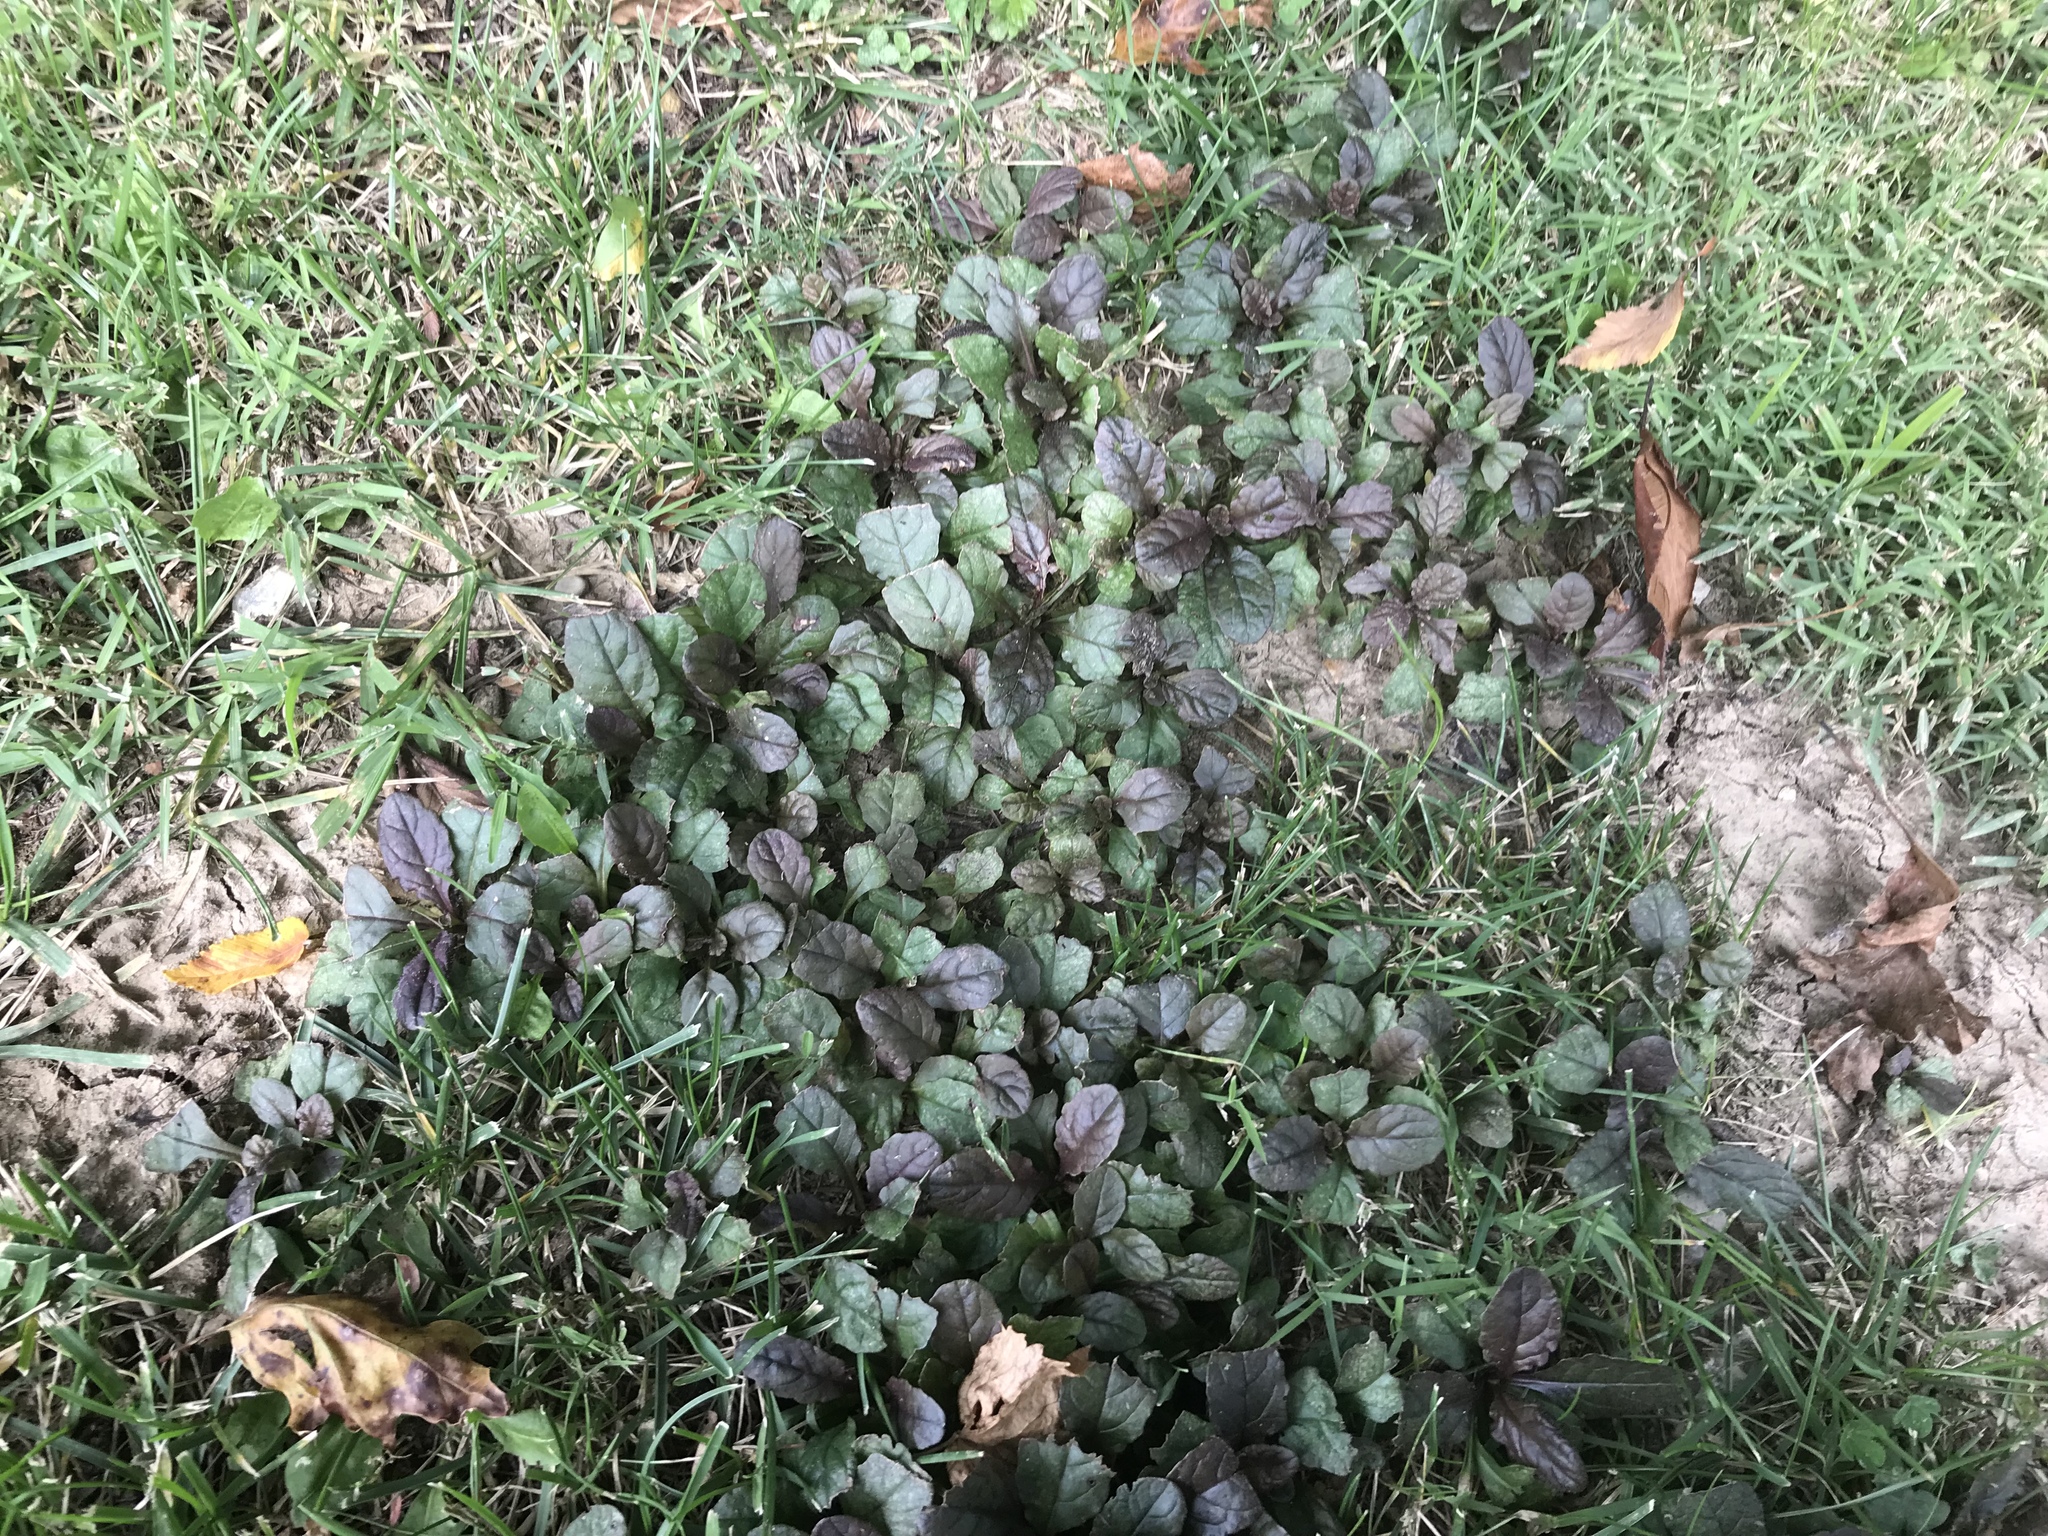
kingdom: Plantae
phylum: Tracheophyta
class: Magnoliopsida
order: Lamiales
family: Lamiaceae
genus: Ajuga
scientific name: Ajuga reptans
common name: Bugle
